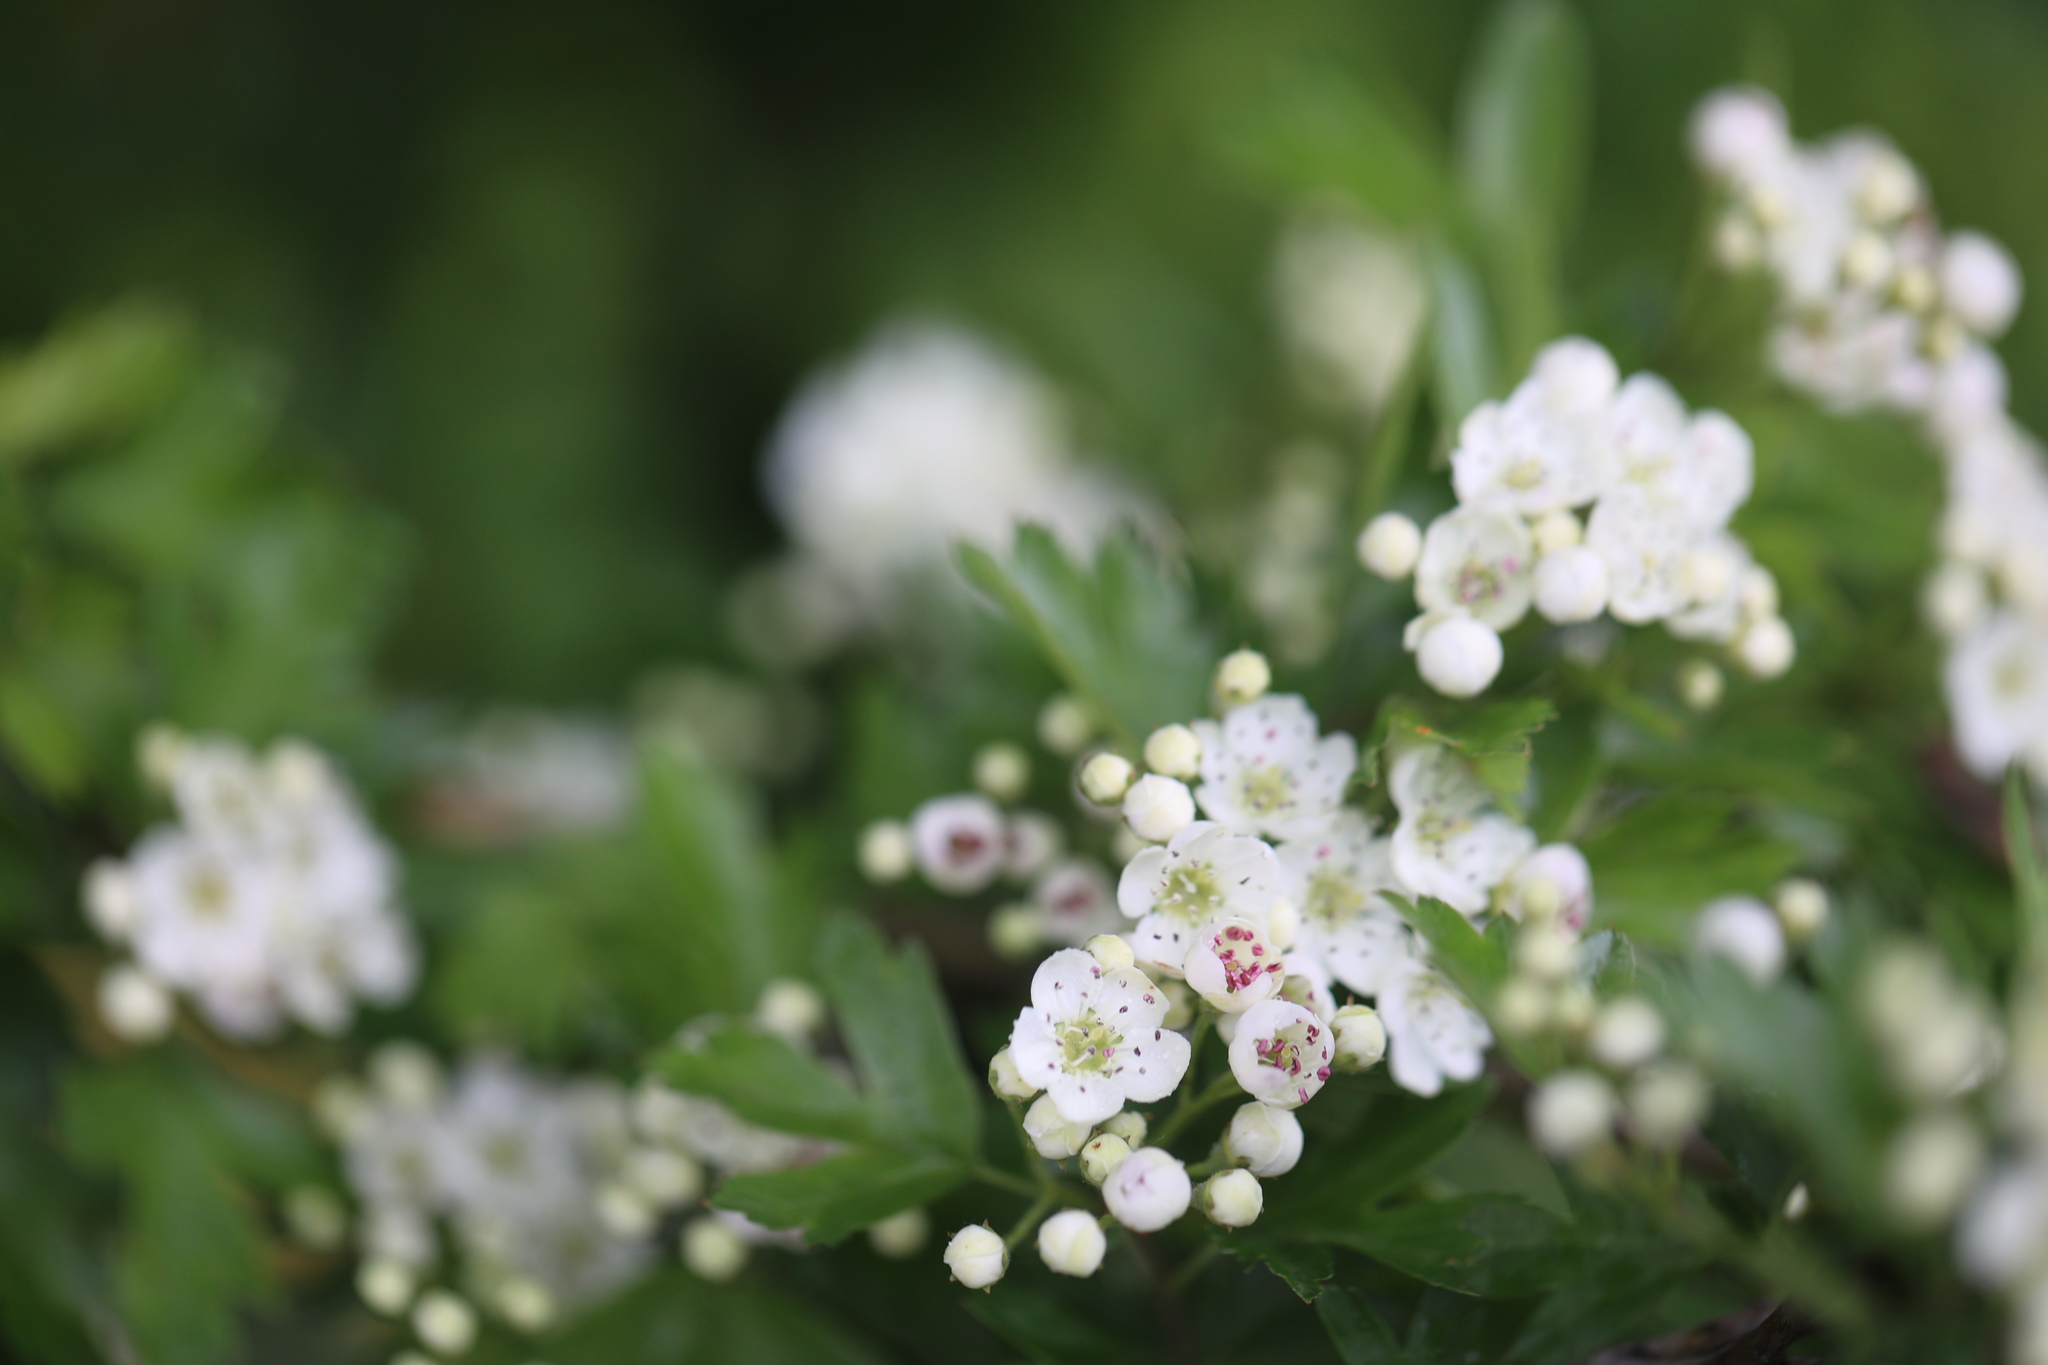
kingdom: Plantae
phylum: Tracheophyta
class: Magnoliopsida
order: Rosales
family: Rosaceae
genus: Crataegus
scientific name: Crataegus monogyna
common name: Hawthorn
